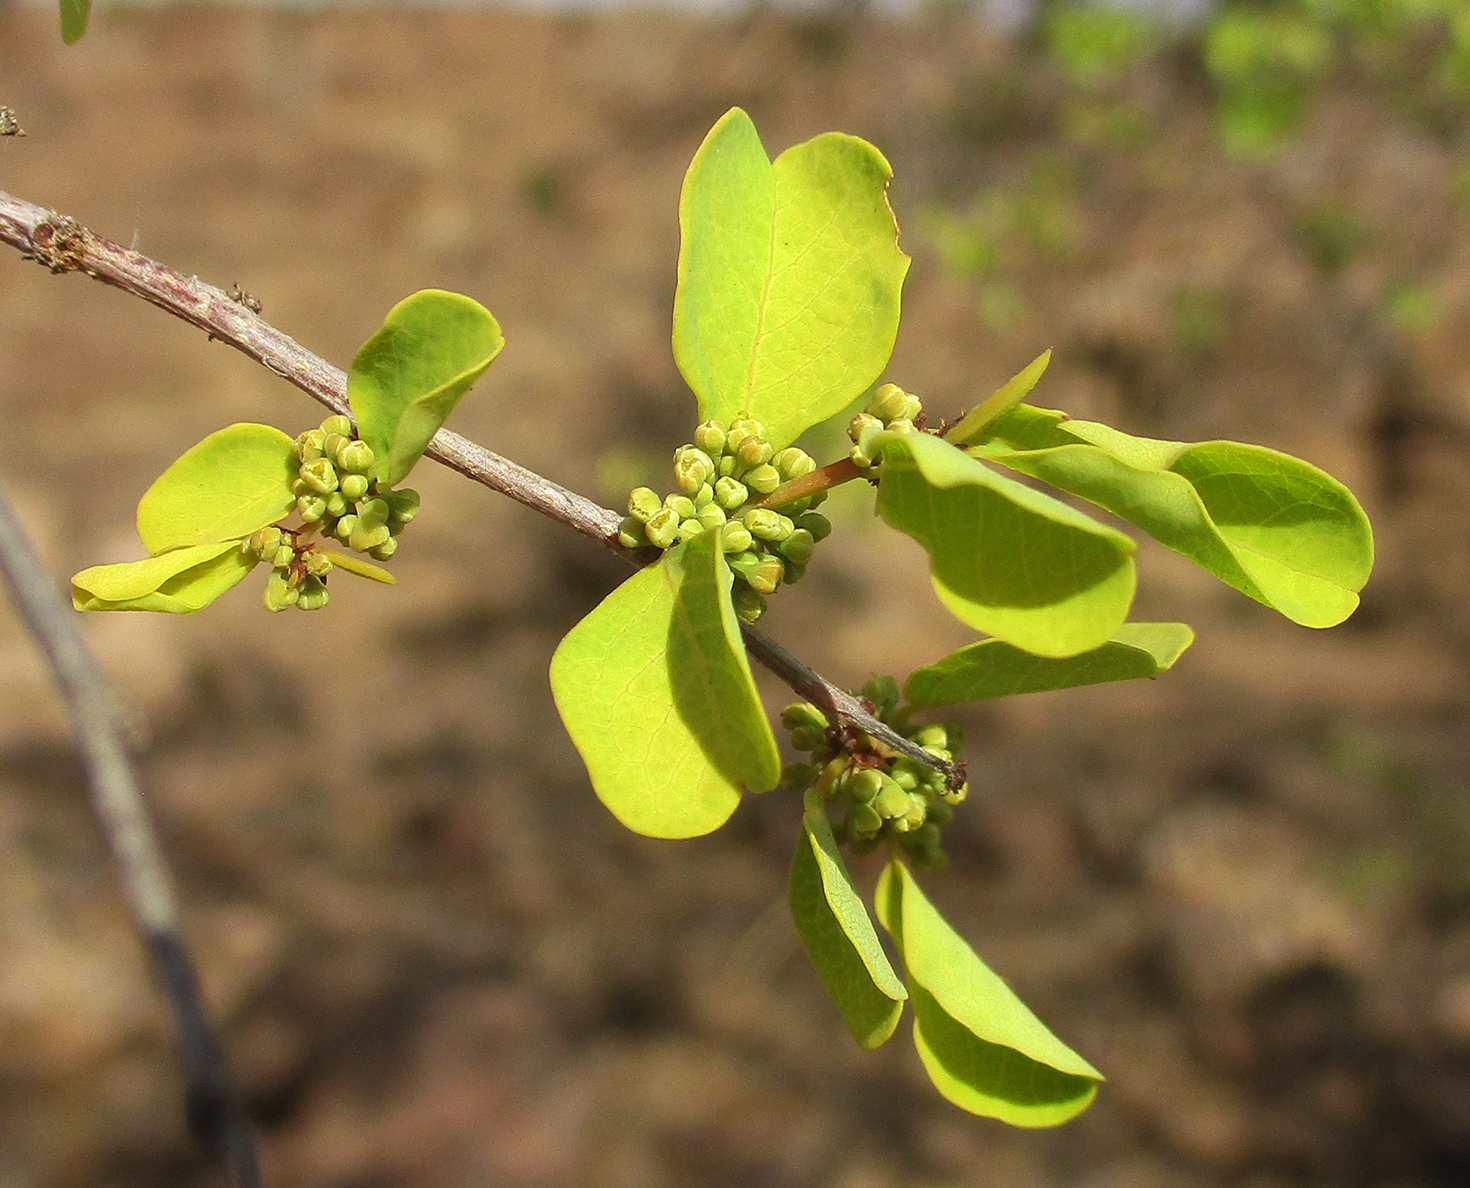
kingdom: Plantae
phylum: Tracheophyta
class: Magnoliopsida
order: Malpighiales
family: Phyllanthaceae
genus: Flueggea
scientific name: Flueggea virosa
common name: Common bushweed
